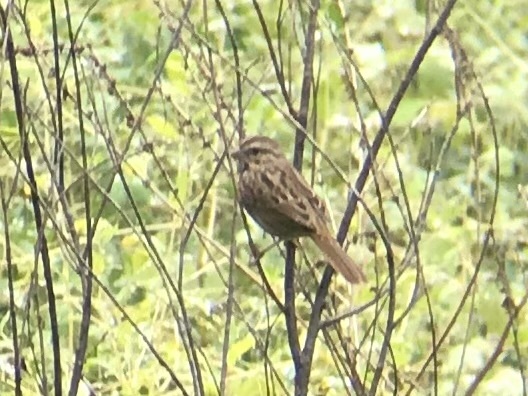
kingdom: Animalia
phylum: Chordata
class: Aves
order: Passeriformes
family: Passerellidae
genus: Melospiza
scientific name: Melospiza melodia
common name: Song sparrow
